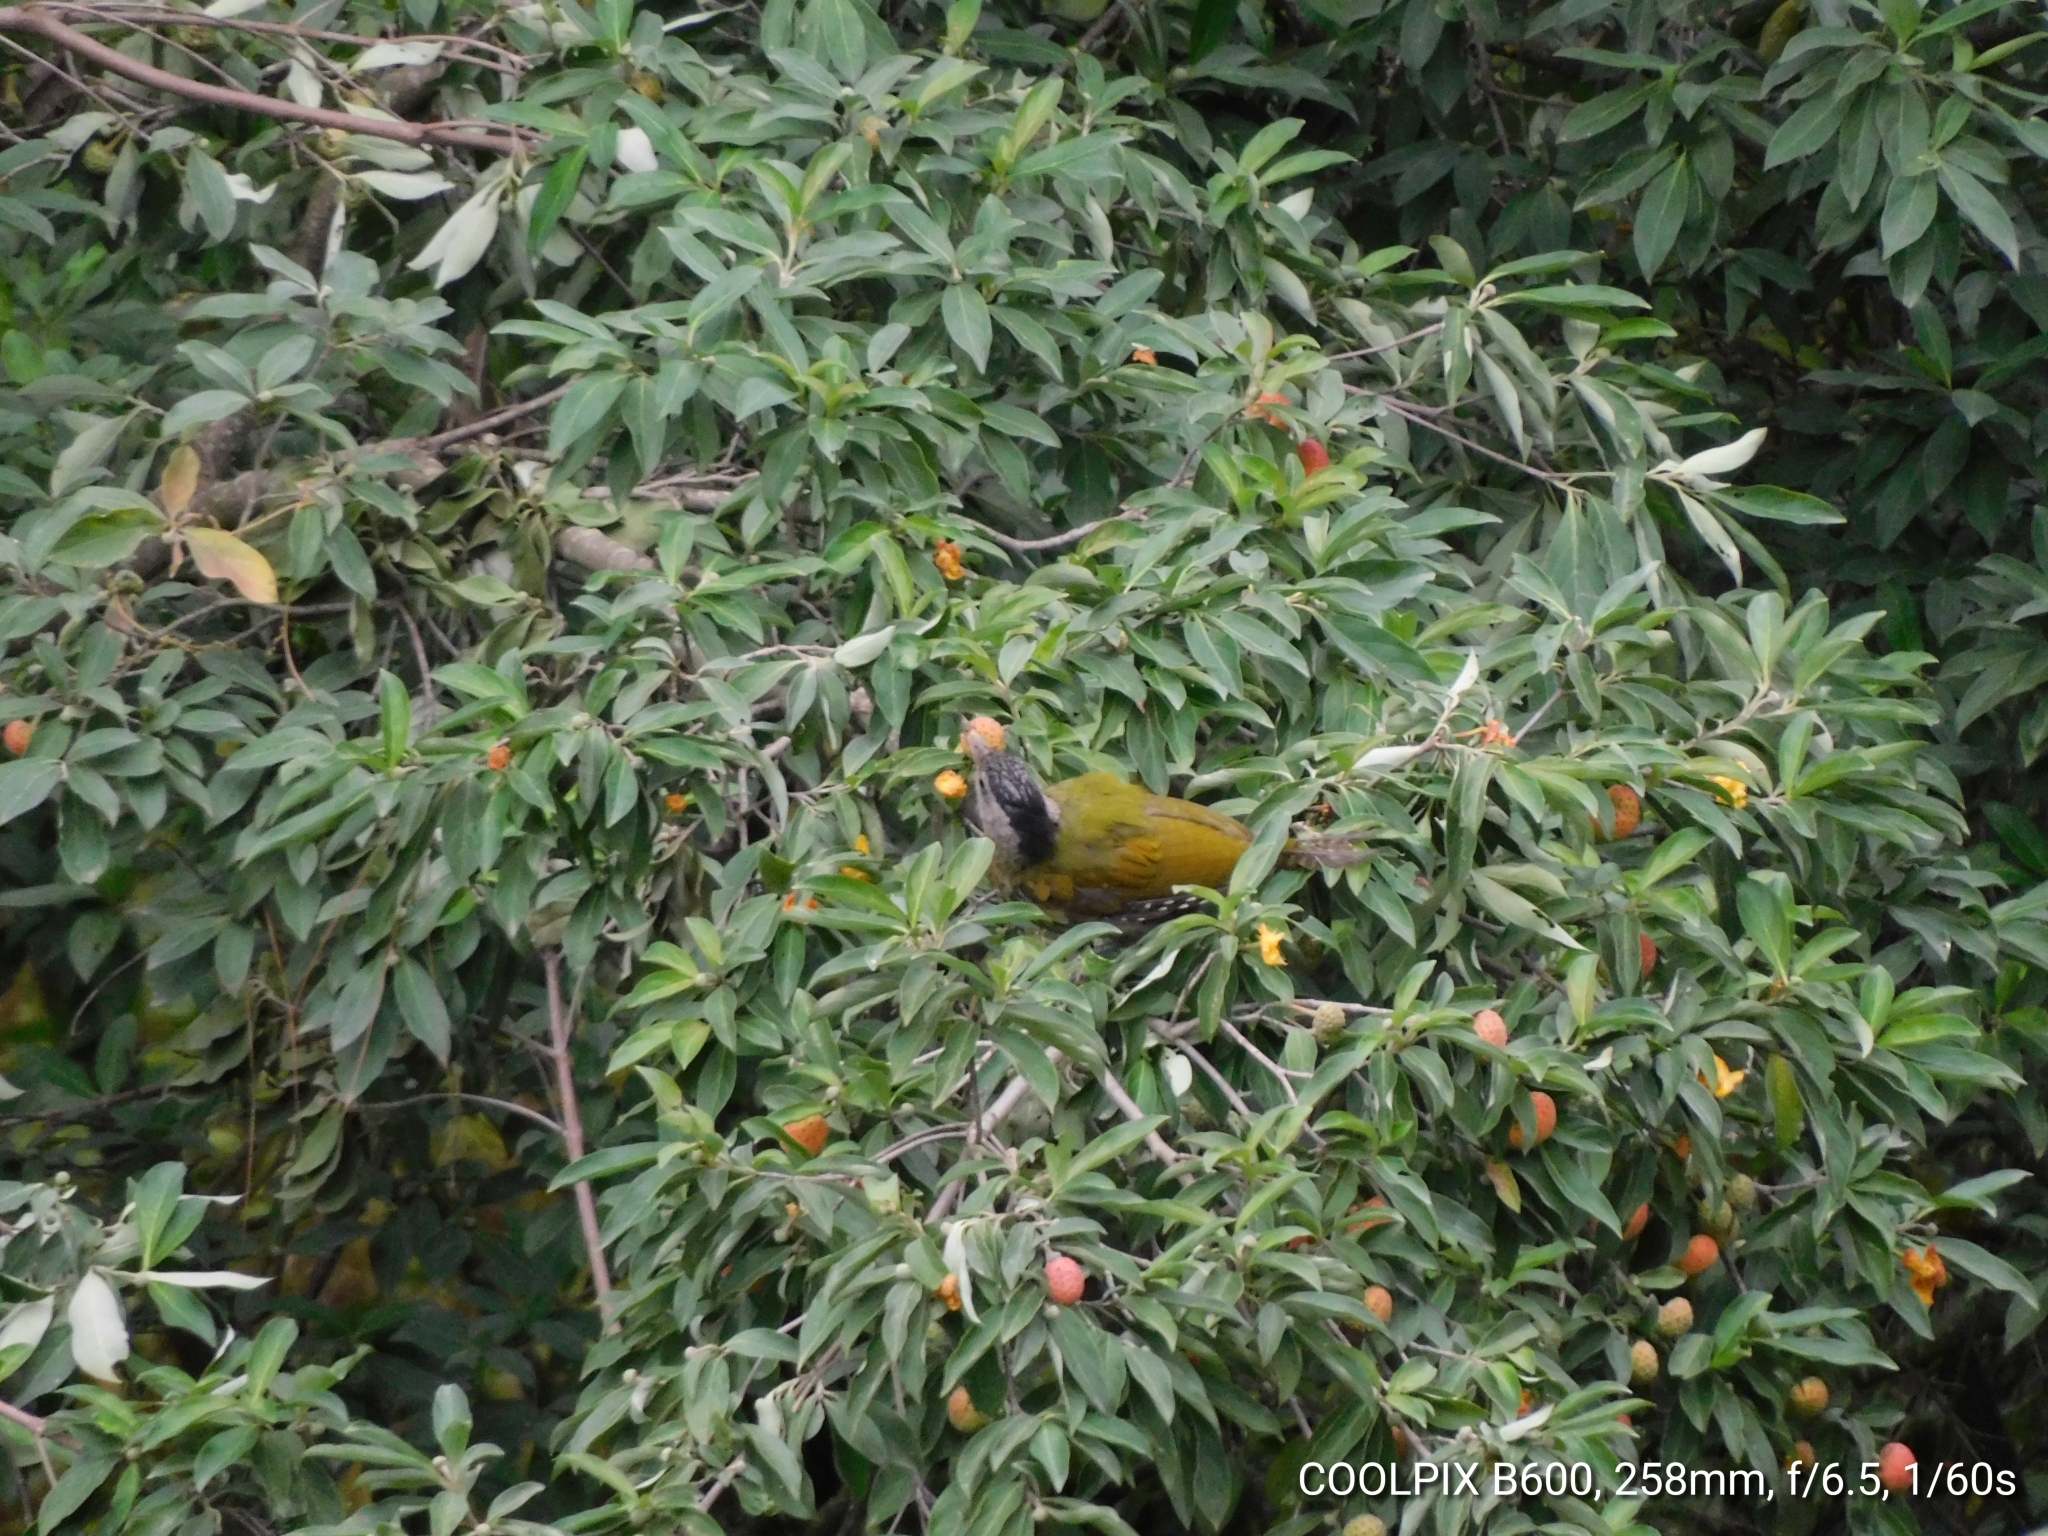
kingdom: Animalia
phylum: Chordata
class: Aves
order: Piciformes
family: Picidae
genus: Picus
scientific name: Picus canus
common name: Grey-headed woodpecker
